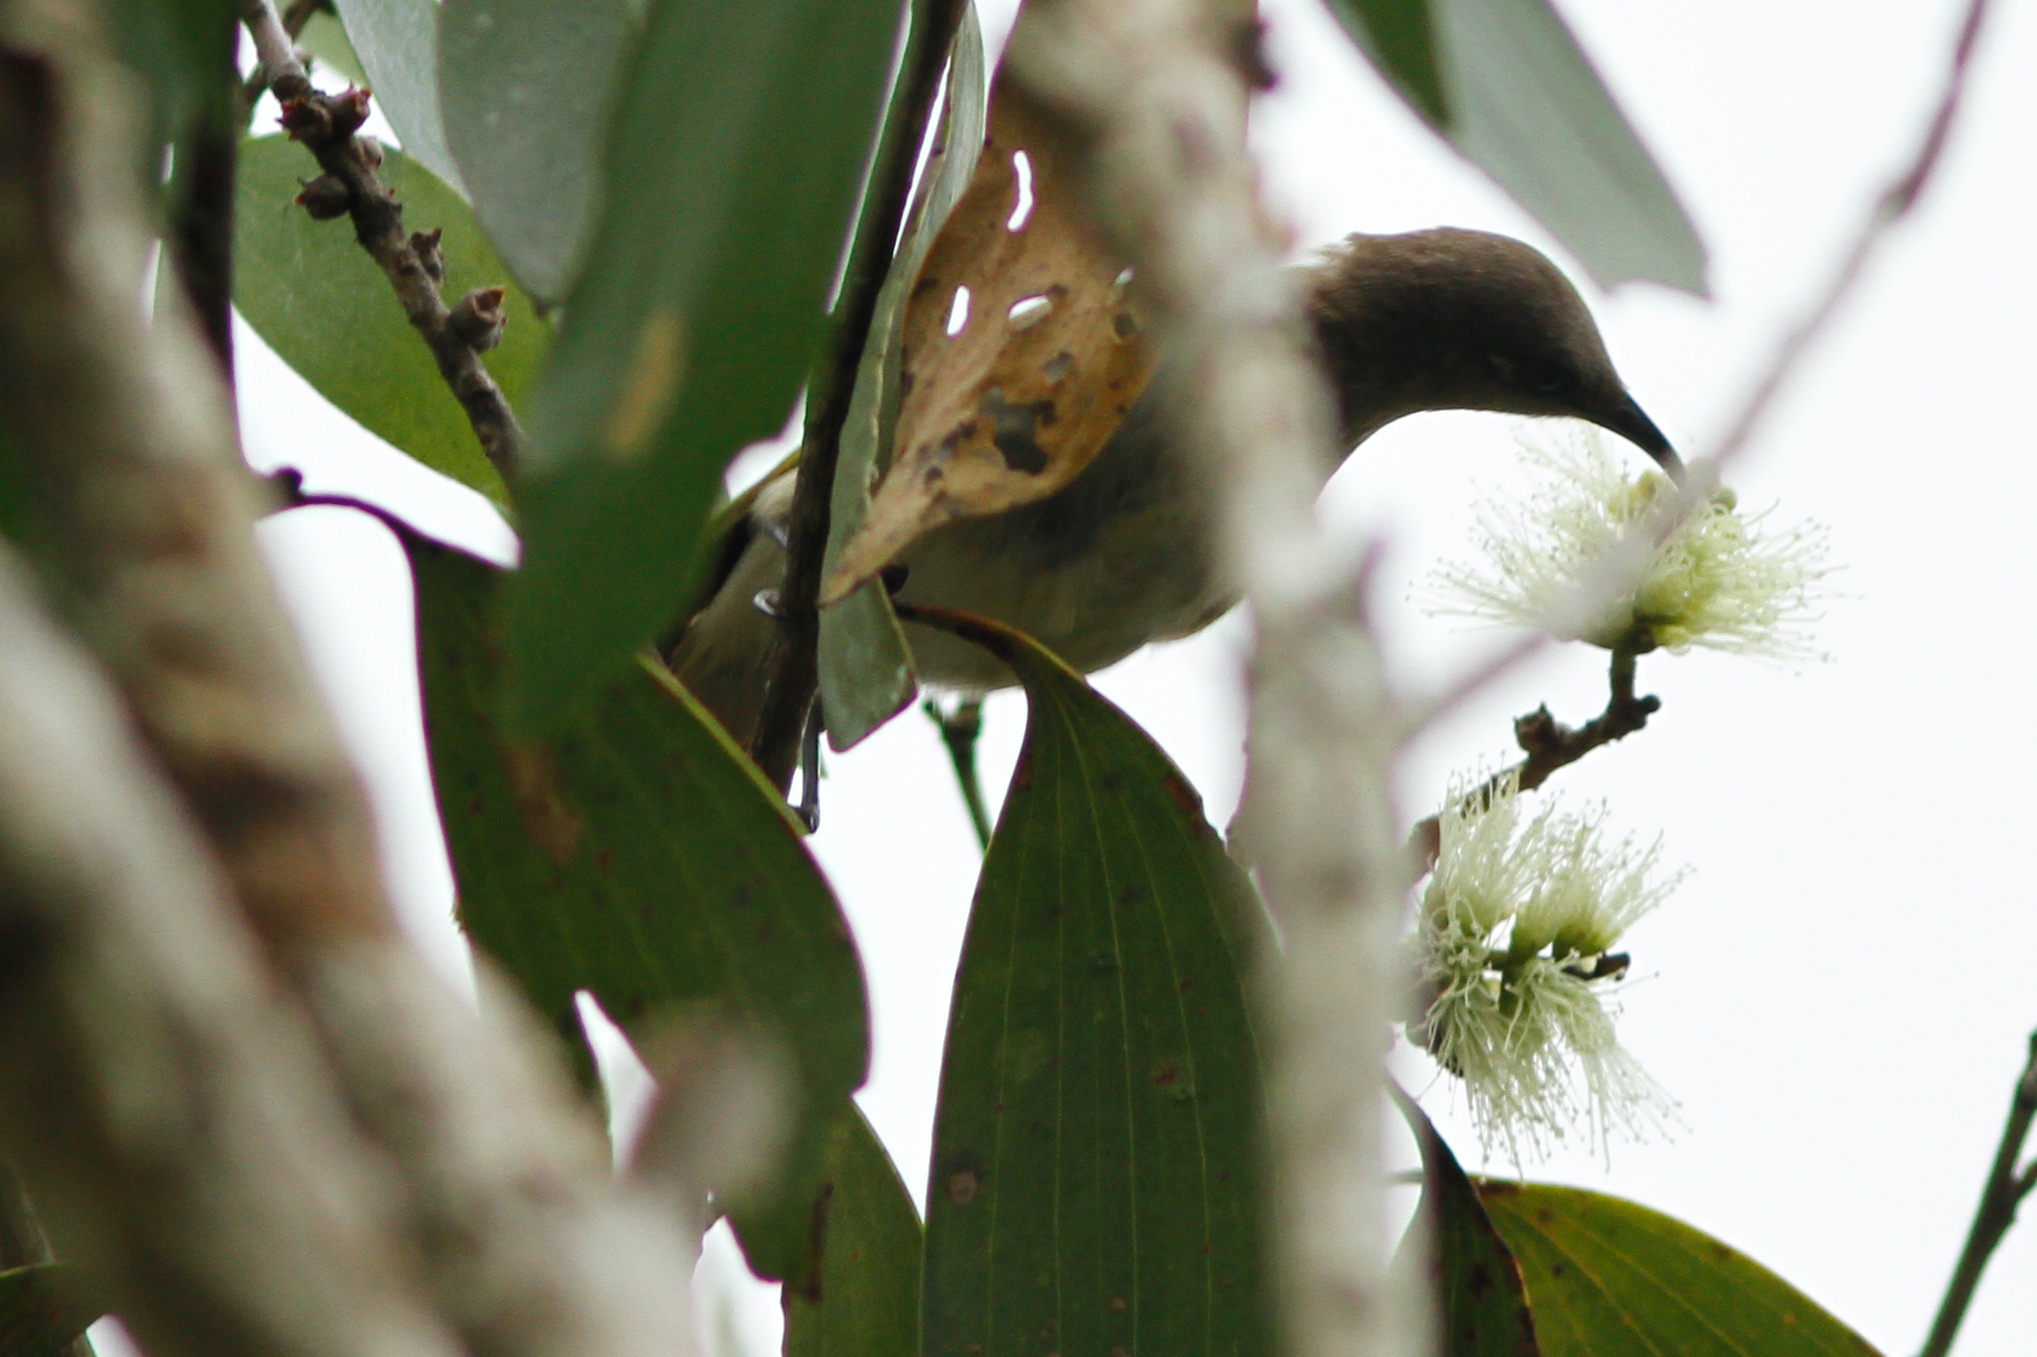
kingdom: Animalia
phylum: Chordata
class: Aves
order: Passeriformes
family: Meliphagidae
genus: Lichmera
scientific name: Lichmera indistincta
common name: Brown honeyeater
